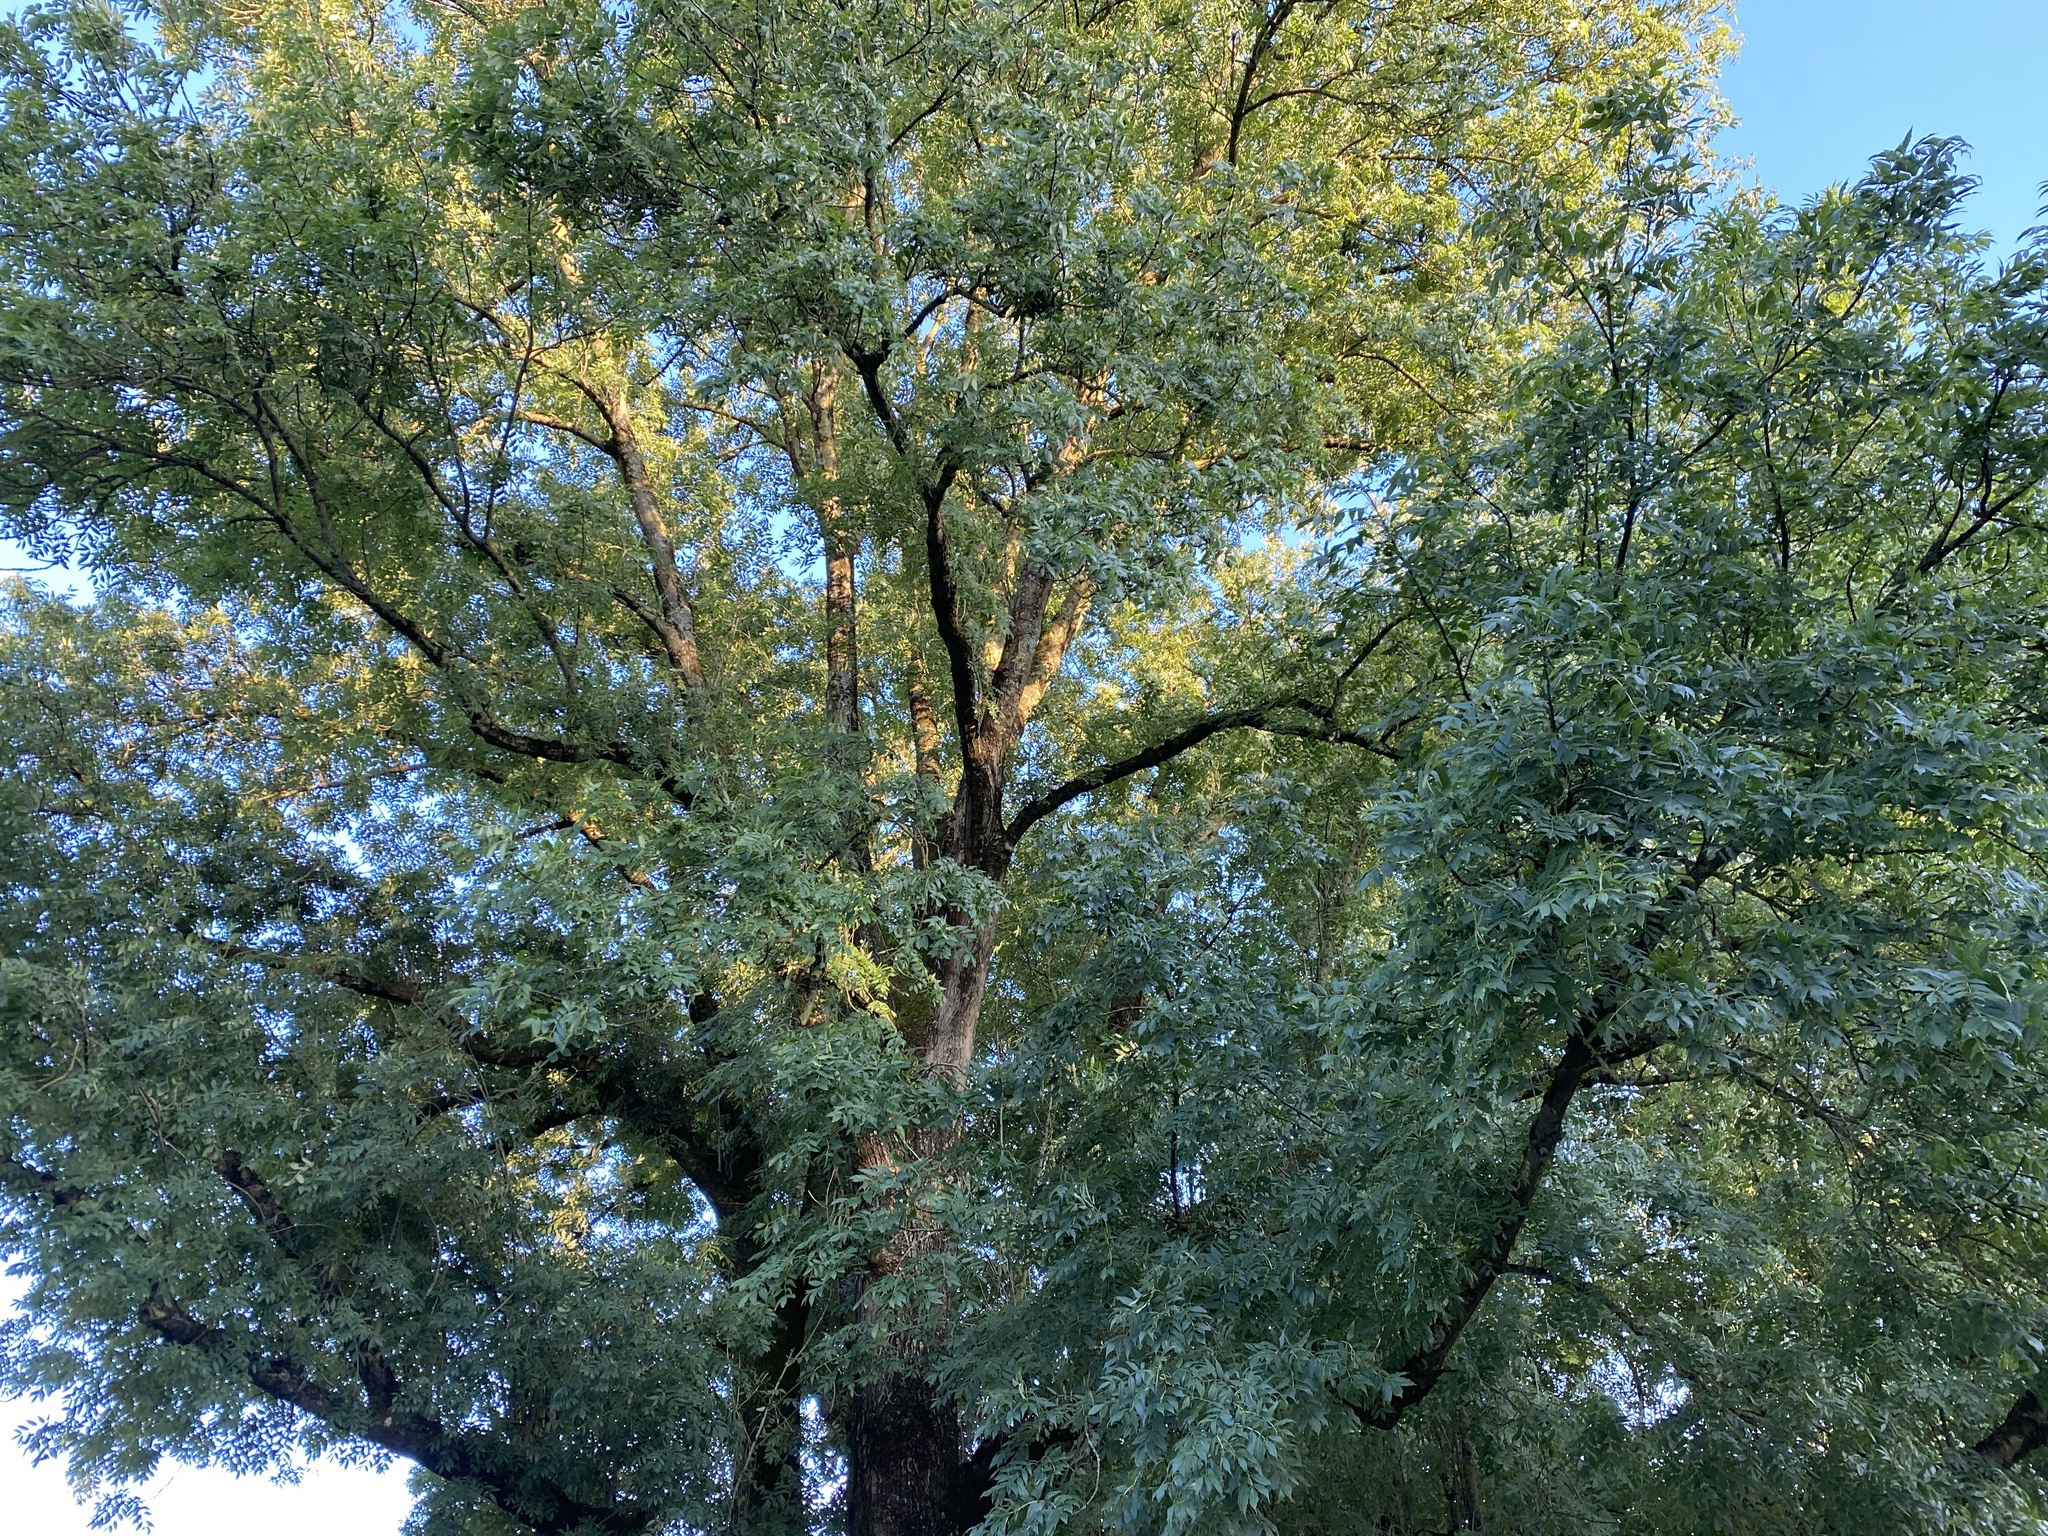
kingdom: Plantae
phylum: Tracheophyta
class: Magnoliopsida
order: Lamiales
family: Oleaceae
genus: Fraxinus
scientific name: Fraxinus excelsior
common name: European ash
